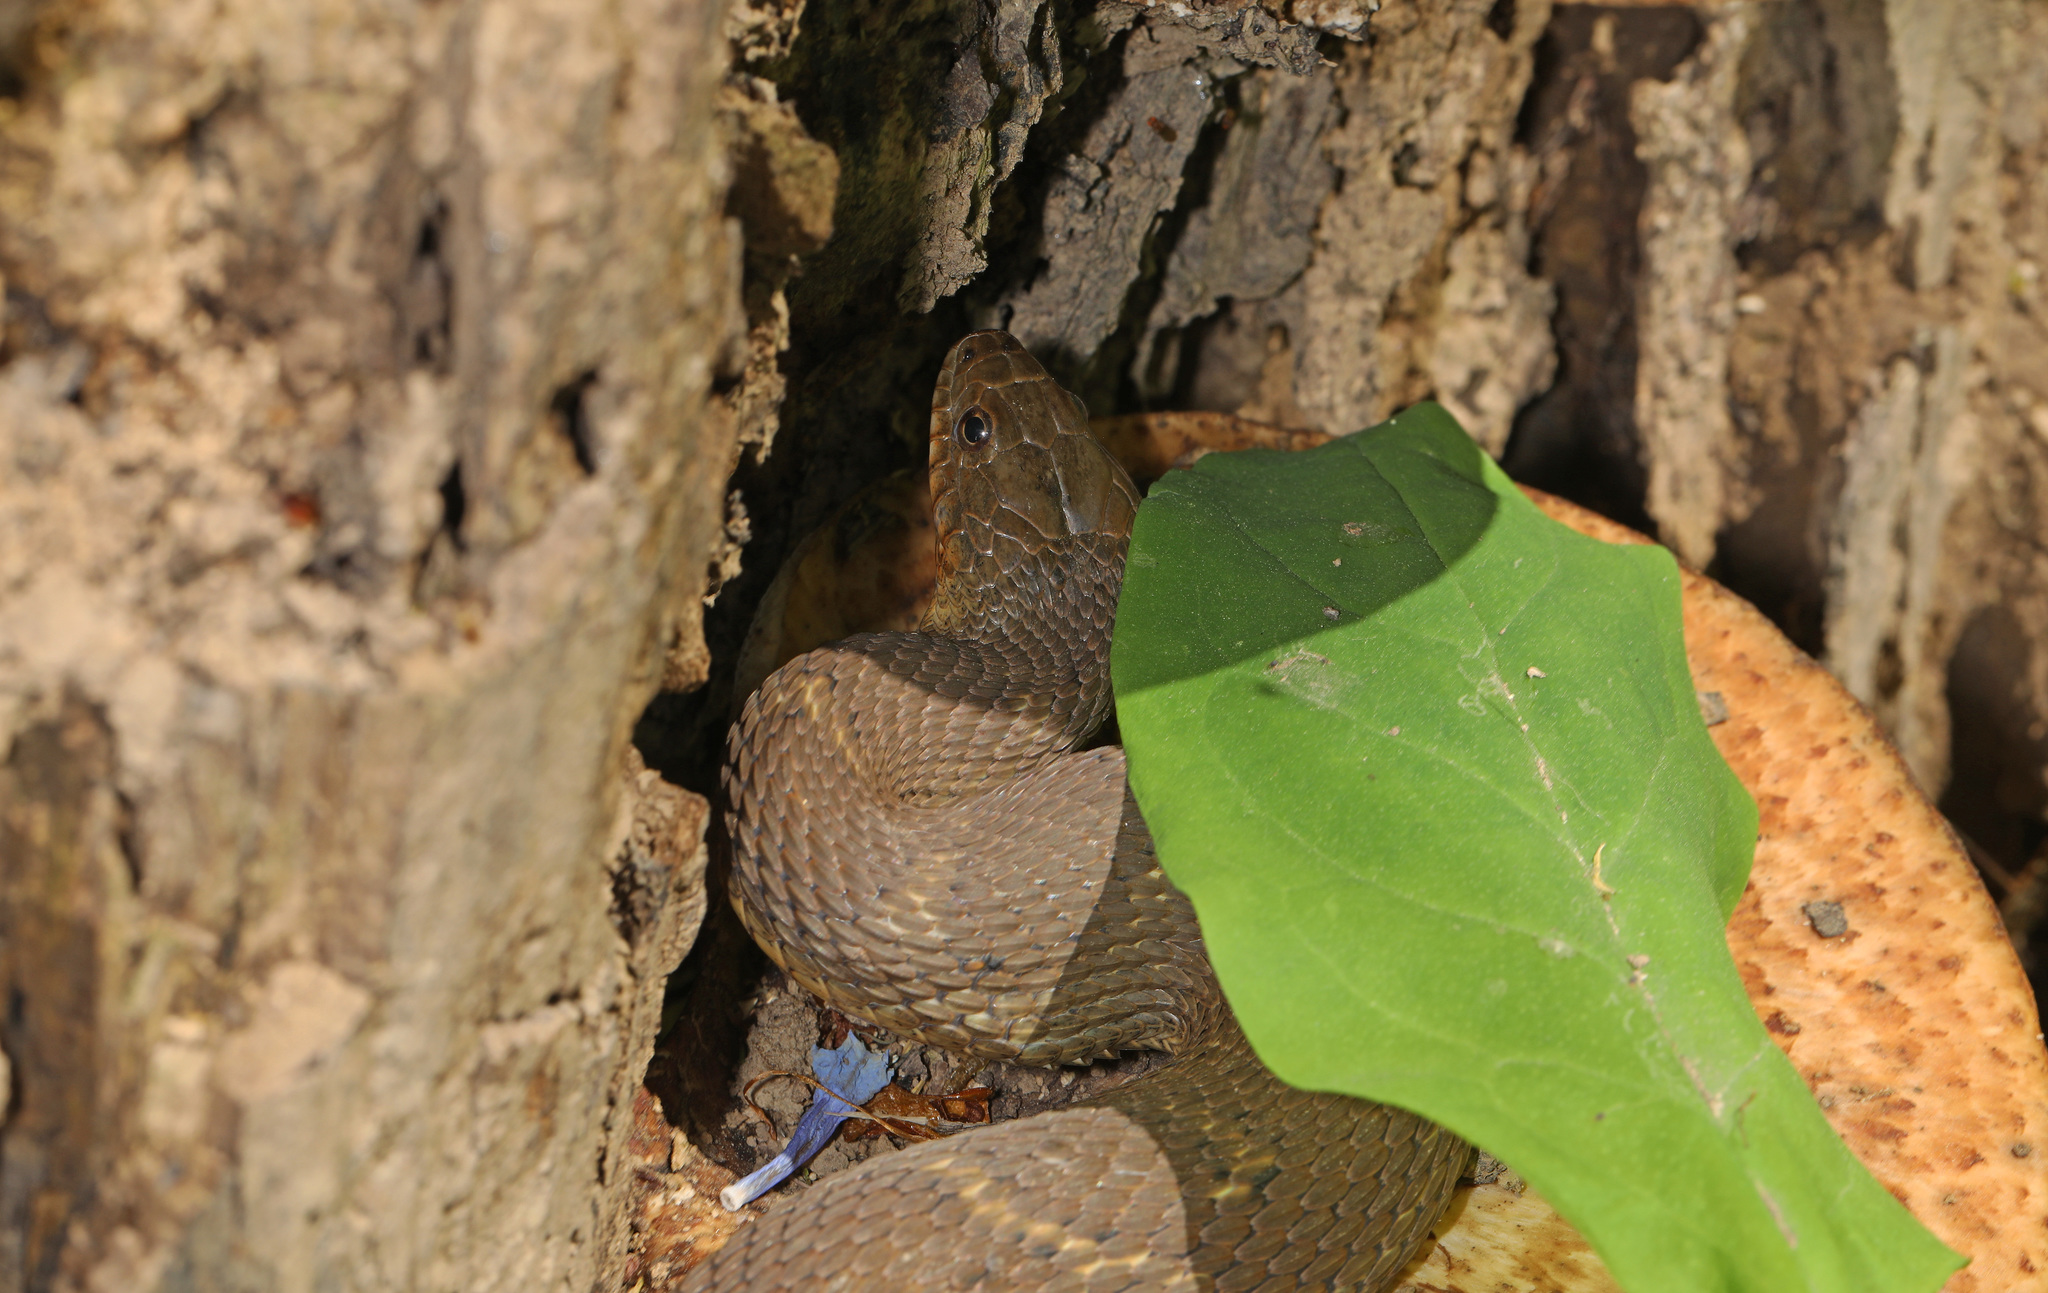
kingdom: Animalia
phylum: Chordata
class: Squamata
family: Colubridae
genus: Nerodia
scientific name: Nerodia sipedon
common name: Northern water snake
